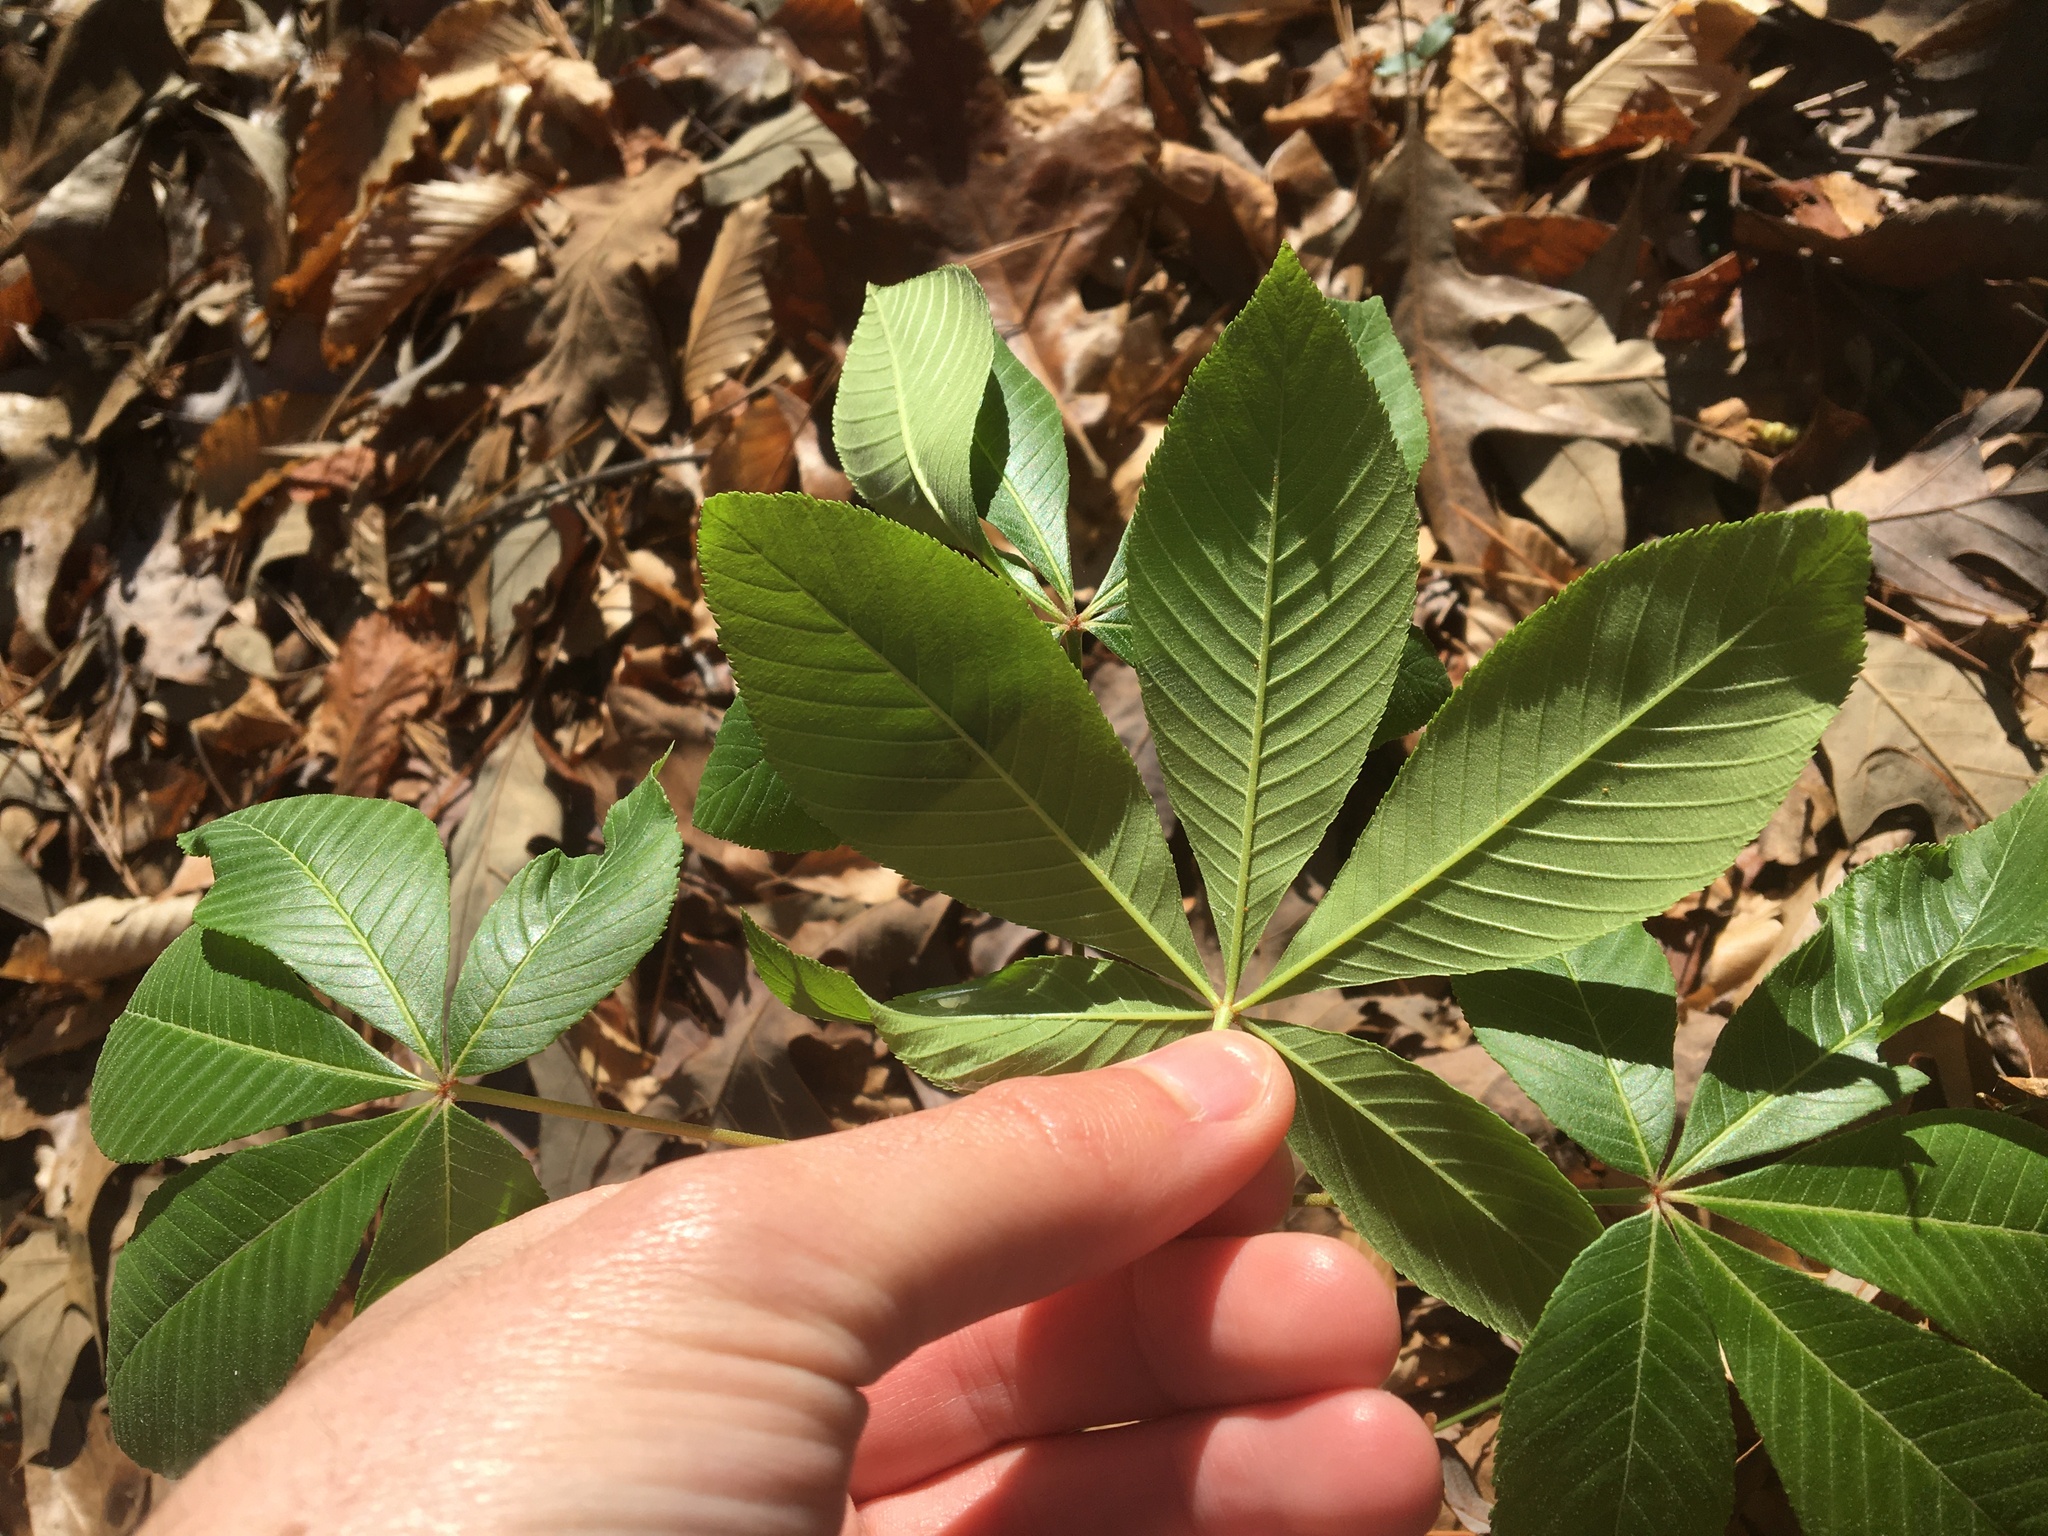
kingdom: Plantae
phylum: Tracheophyta
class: Magnoliopsida
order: Sapindales
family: Sapindaceae
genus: Aesculus
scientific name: Aesculus pavia
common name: Red buckeye
